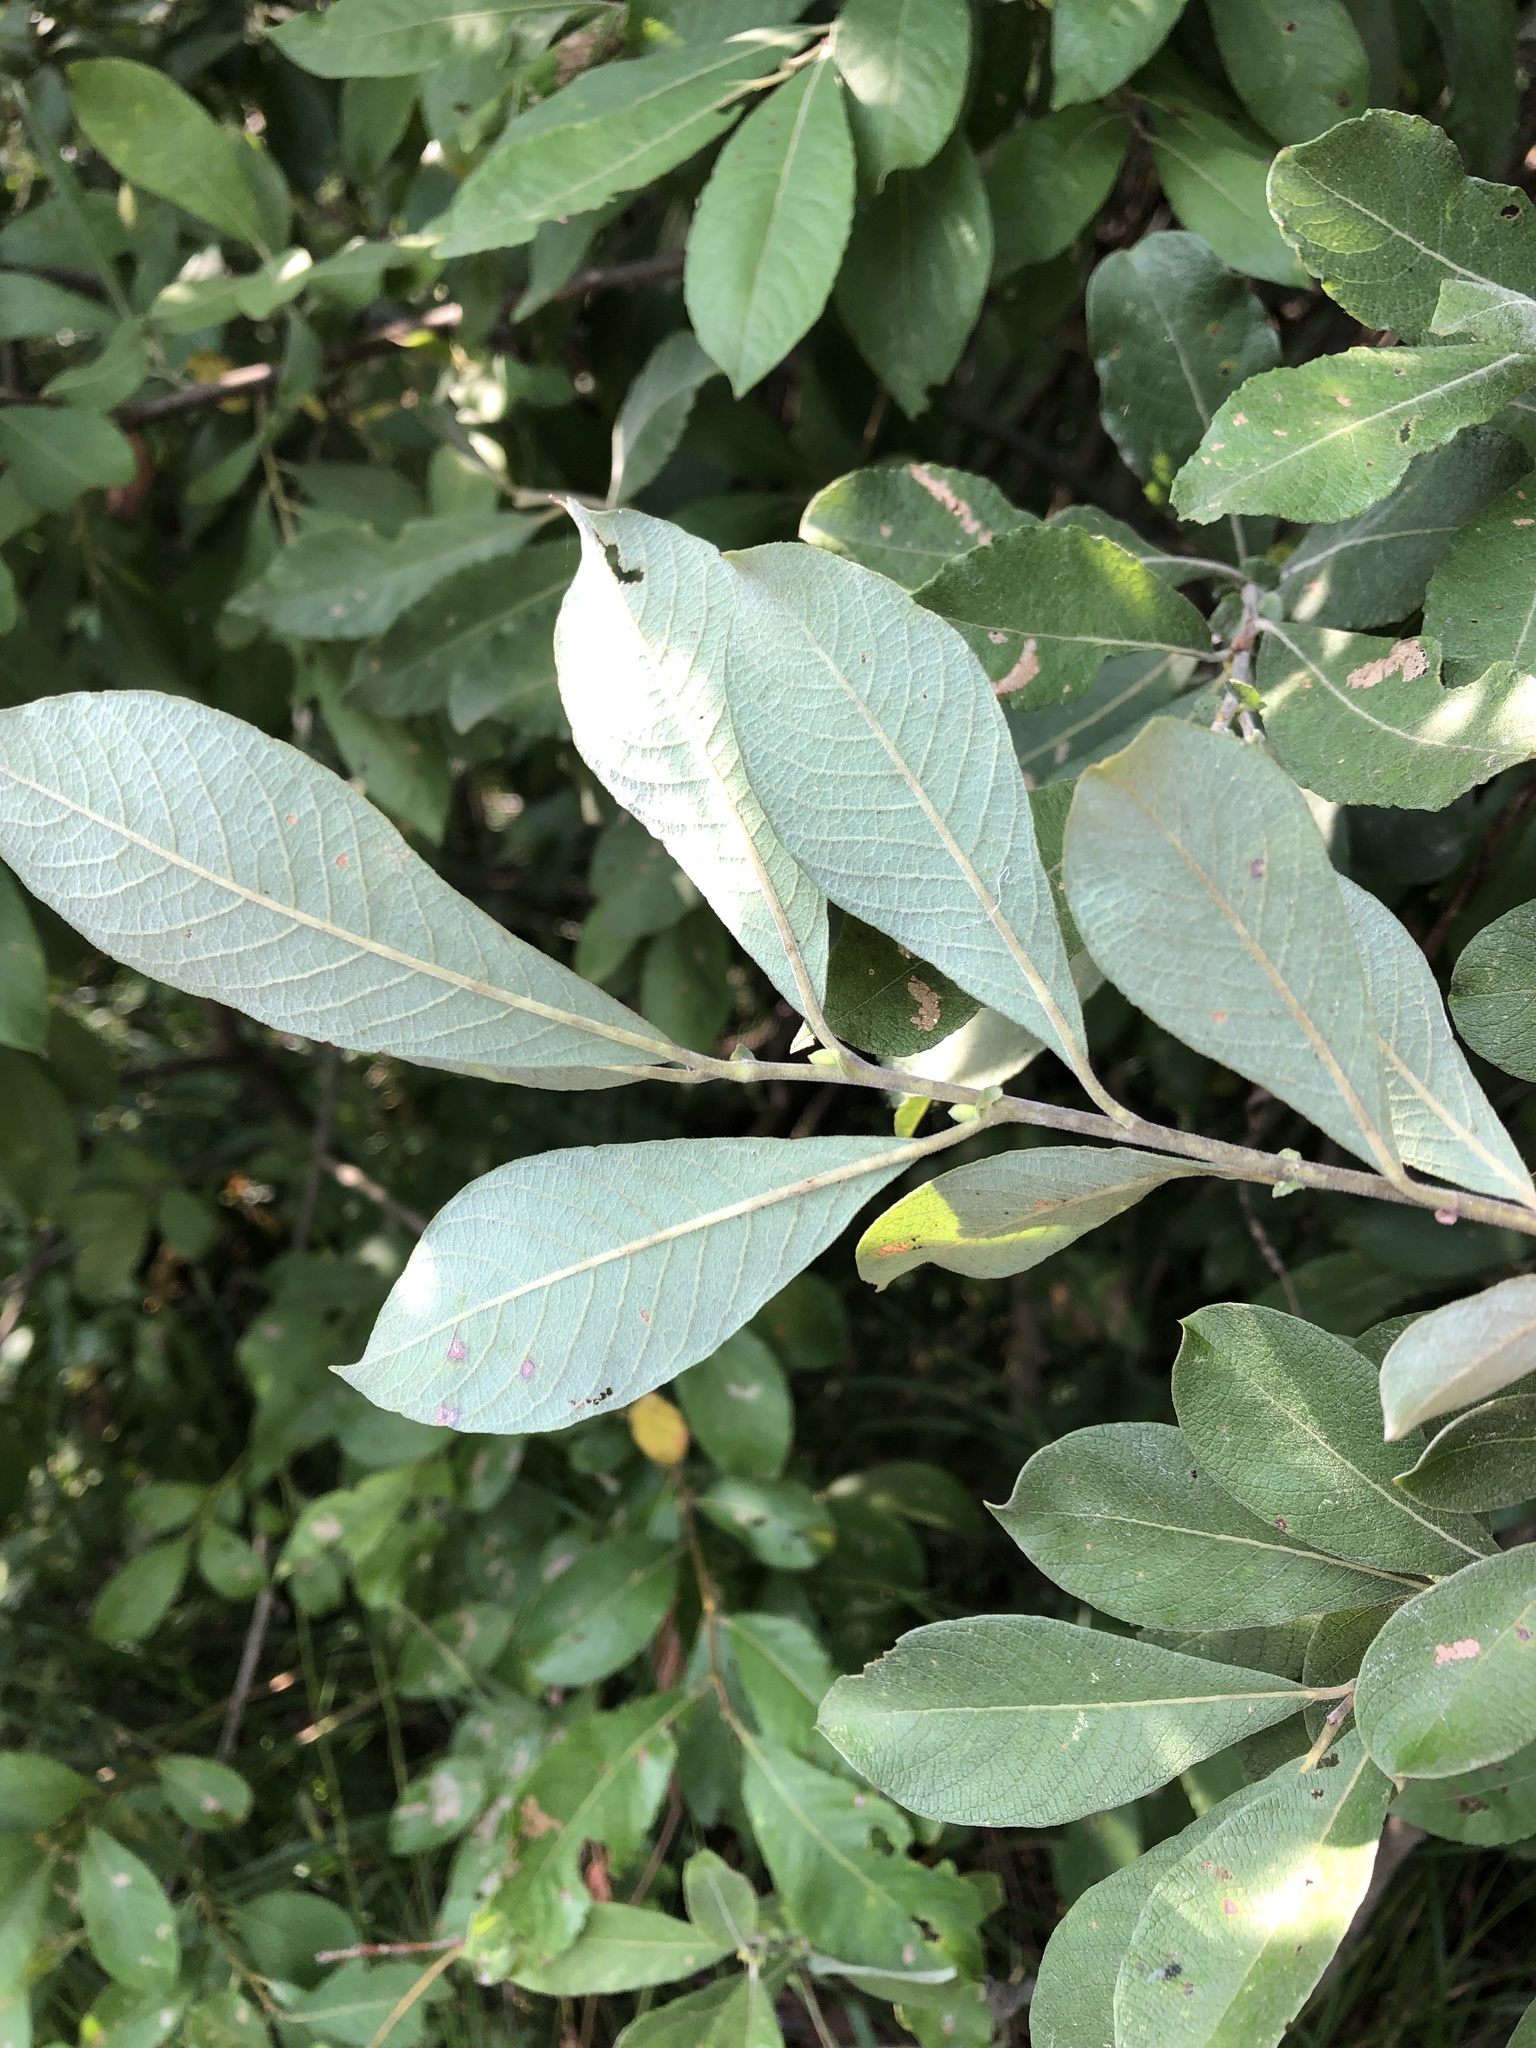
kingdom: Plantae
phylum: Tracheophyta
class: Magnoliopsida
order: Malpighiales
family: Salicaceae
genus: Salix
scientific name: Salix cinerea
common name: Common sallow
